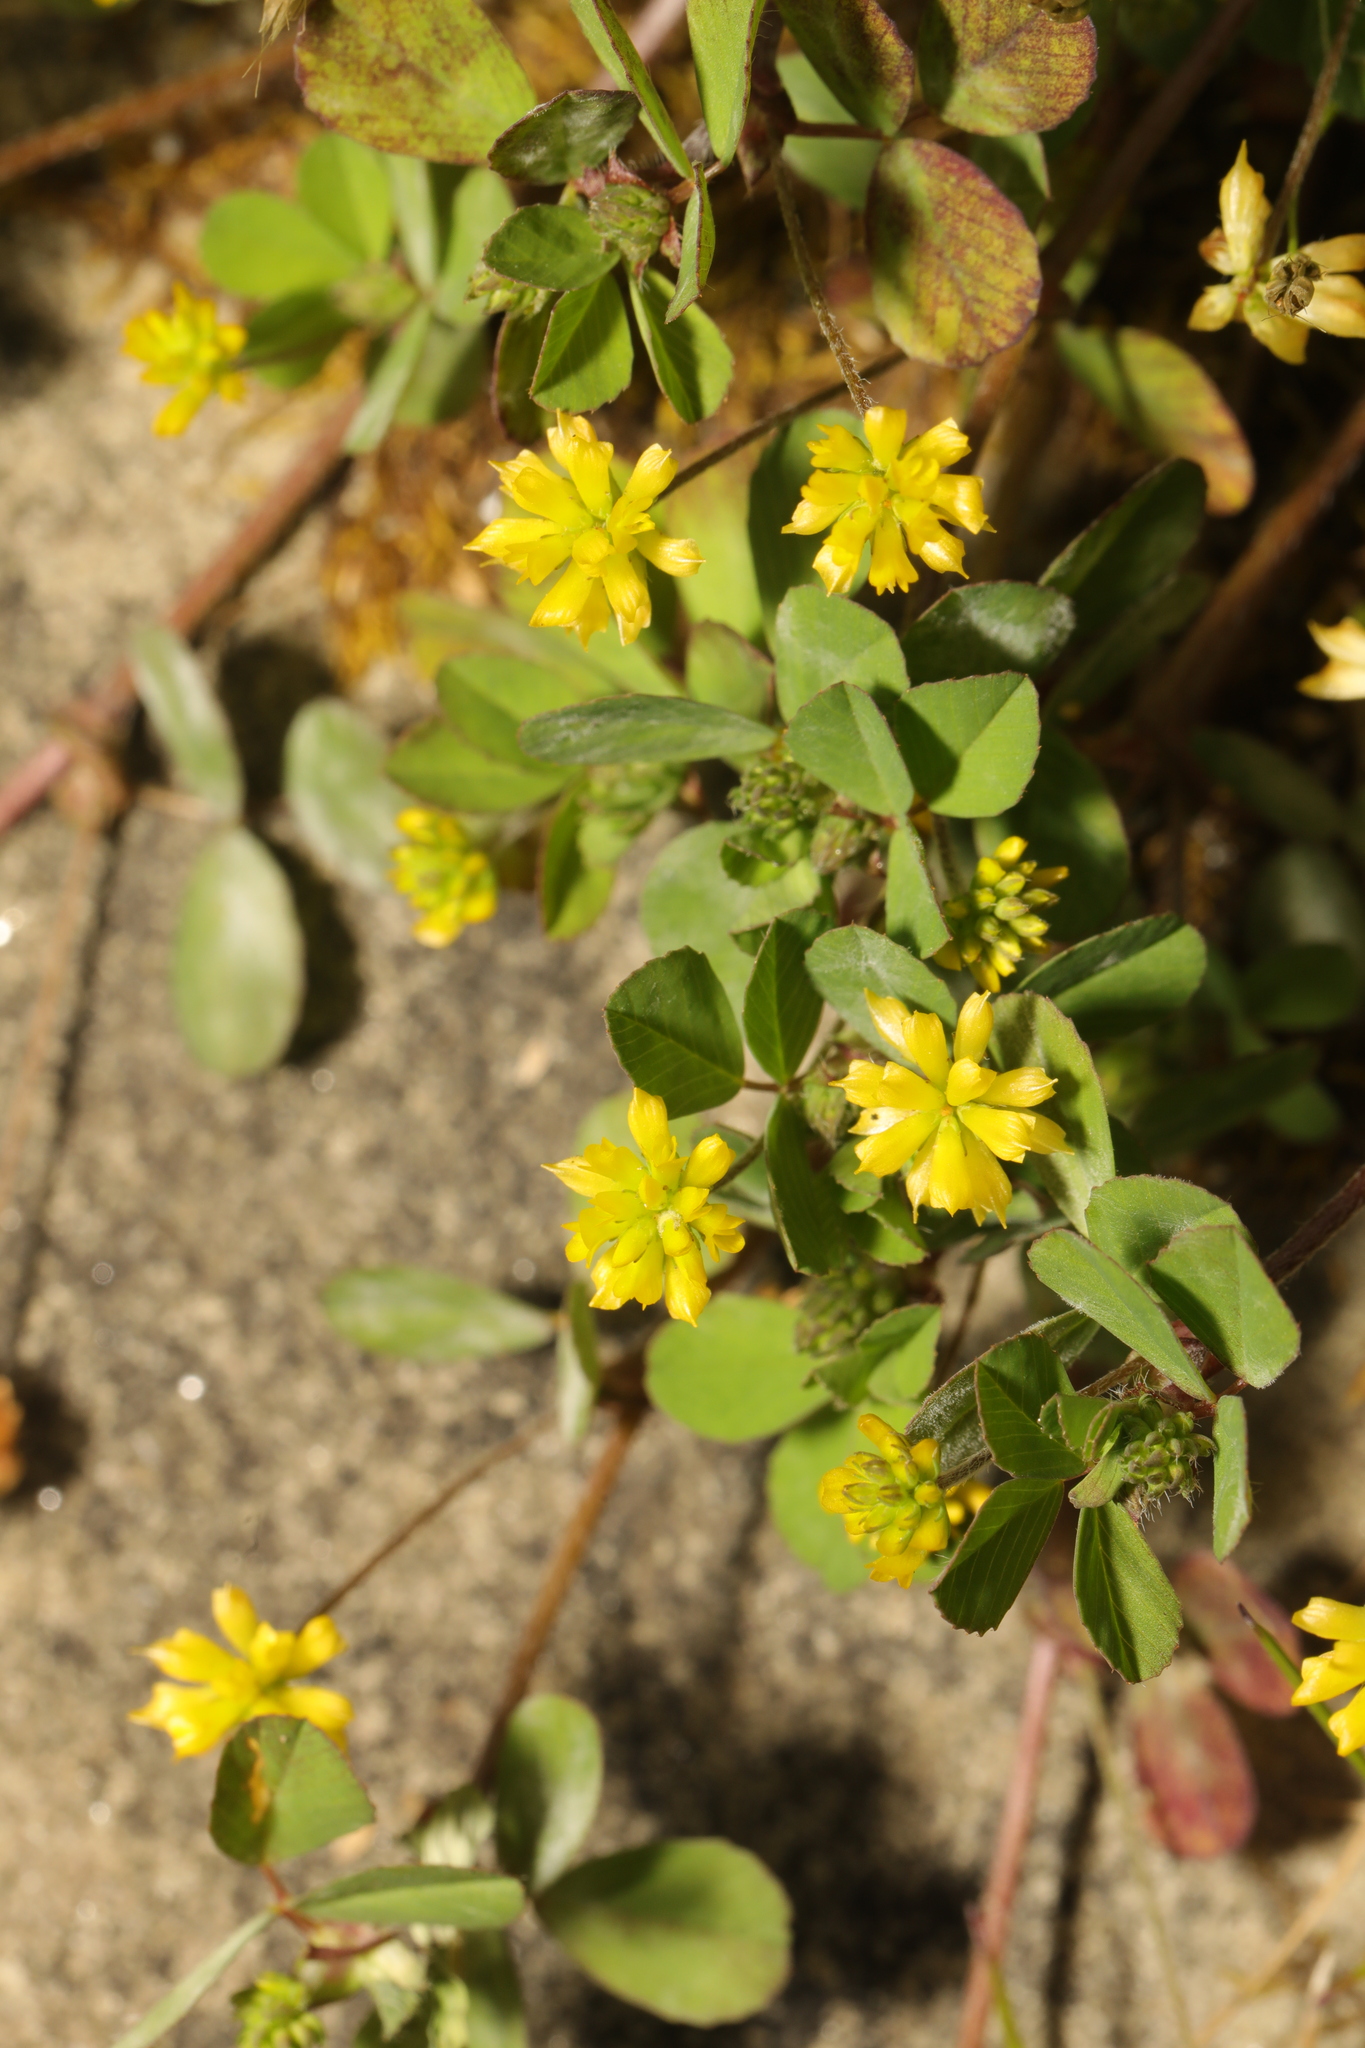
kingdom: Plantae
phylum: Tracheophyta
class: Magnoliopsida
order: Fabales
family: Fabaceae
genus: Trifolium
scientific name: Trifolium dubium
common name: Suckling clover
